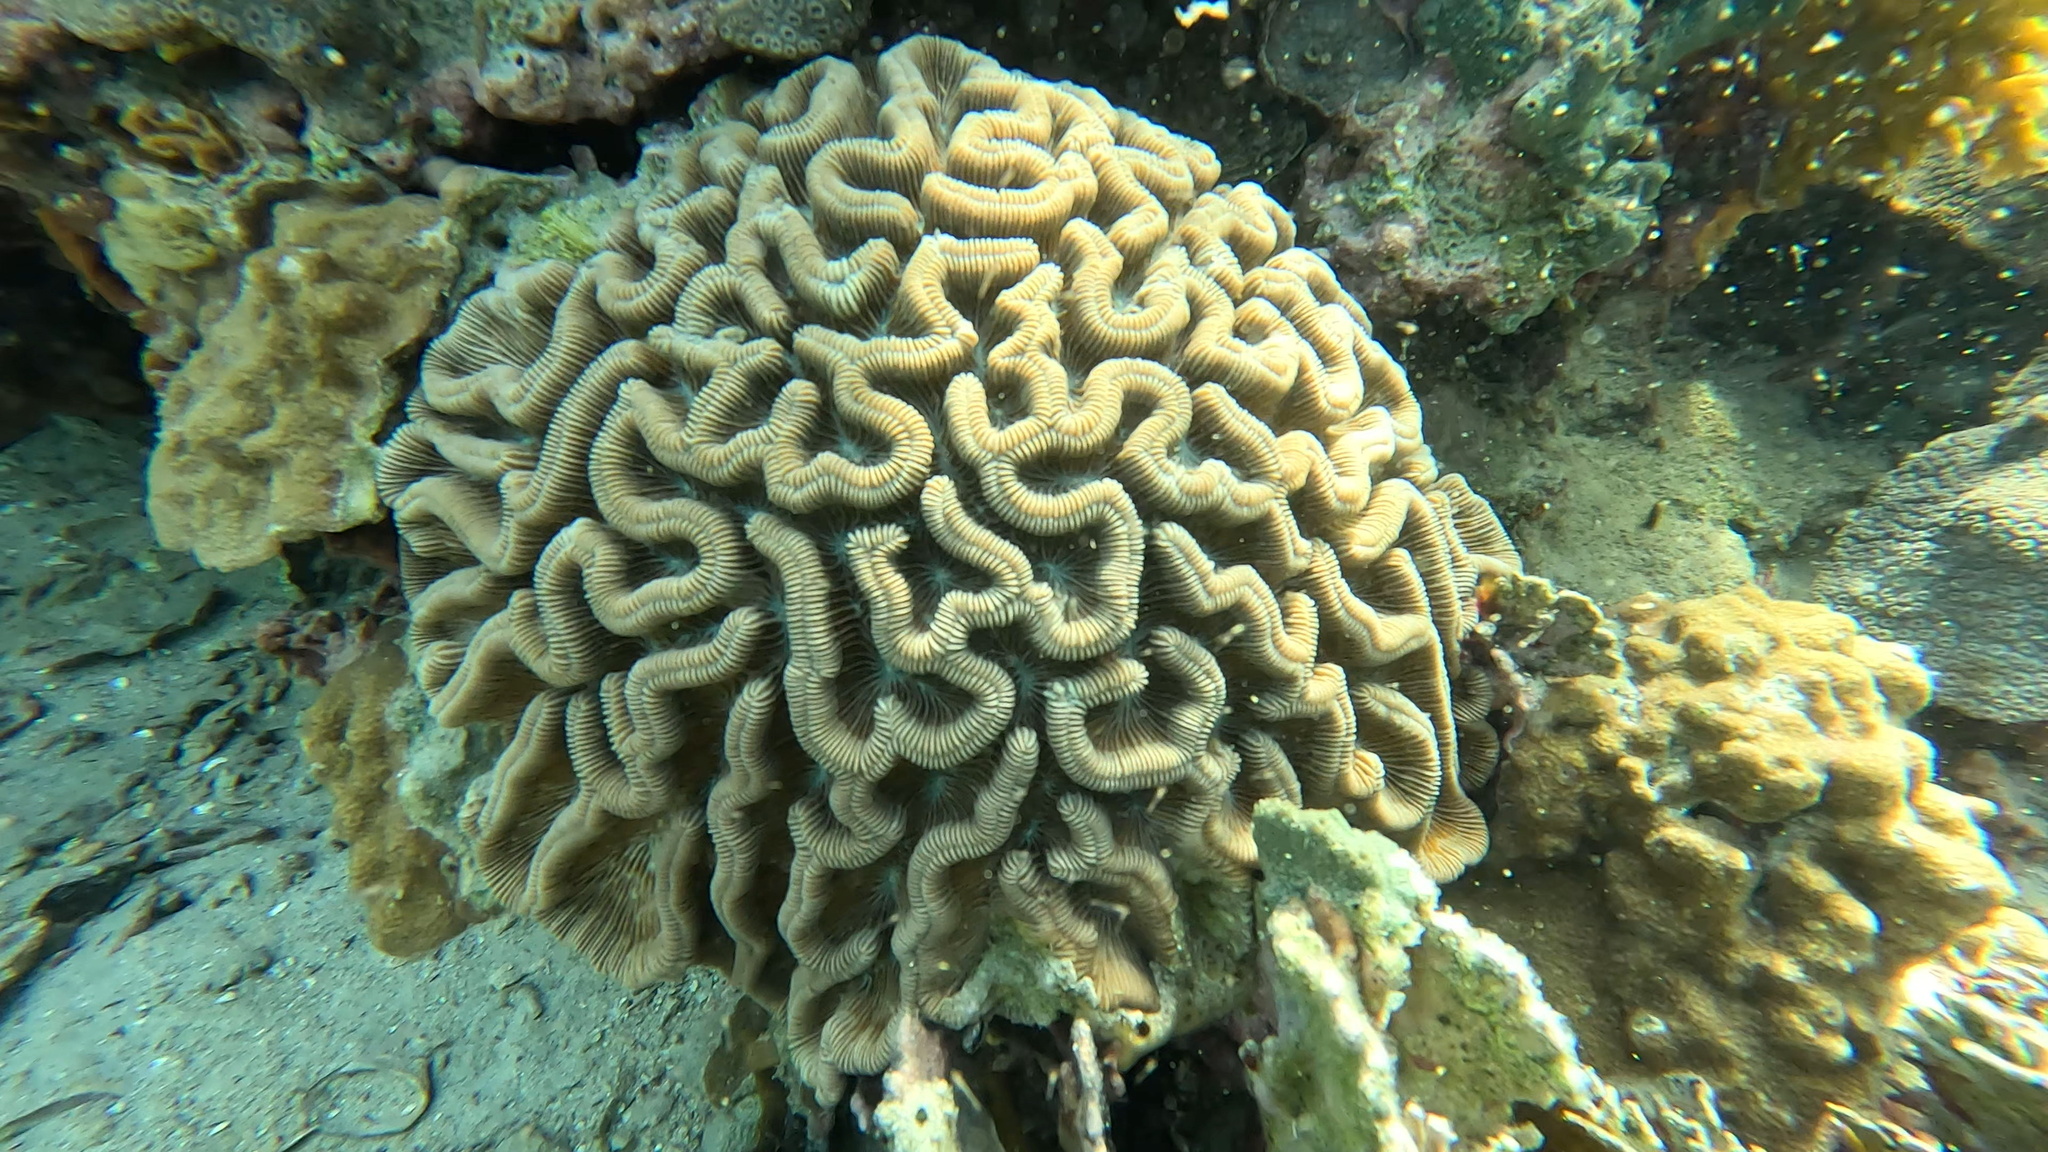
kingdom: Animalia
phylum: Cnidaria
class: Anthozoa
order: Scleractinia
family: Faviidae
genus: Colpophyllia
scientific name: Colpophyllia natans
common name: Boulder brain coral
